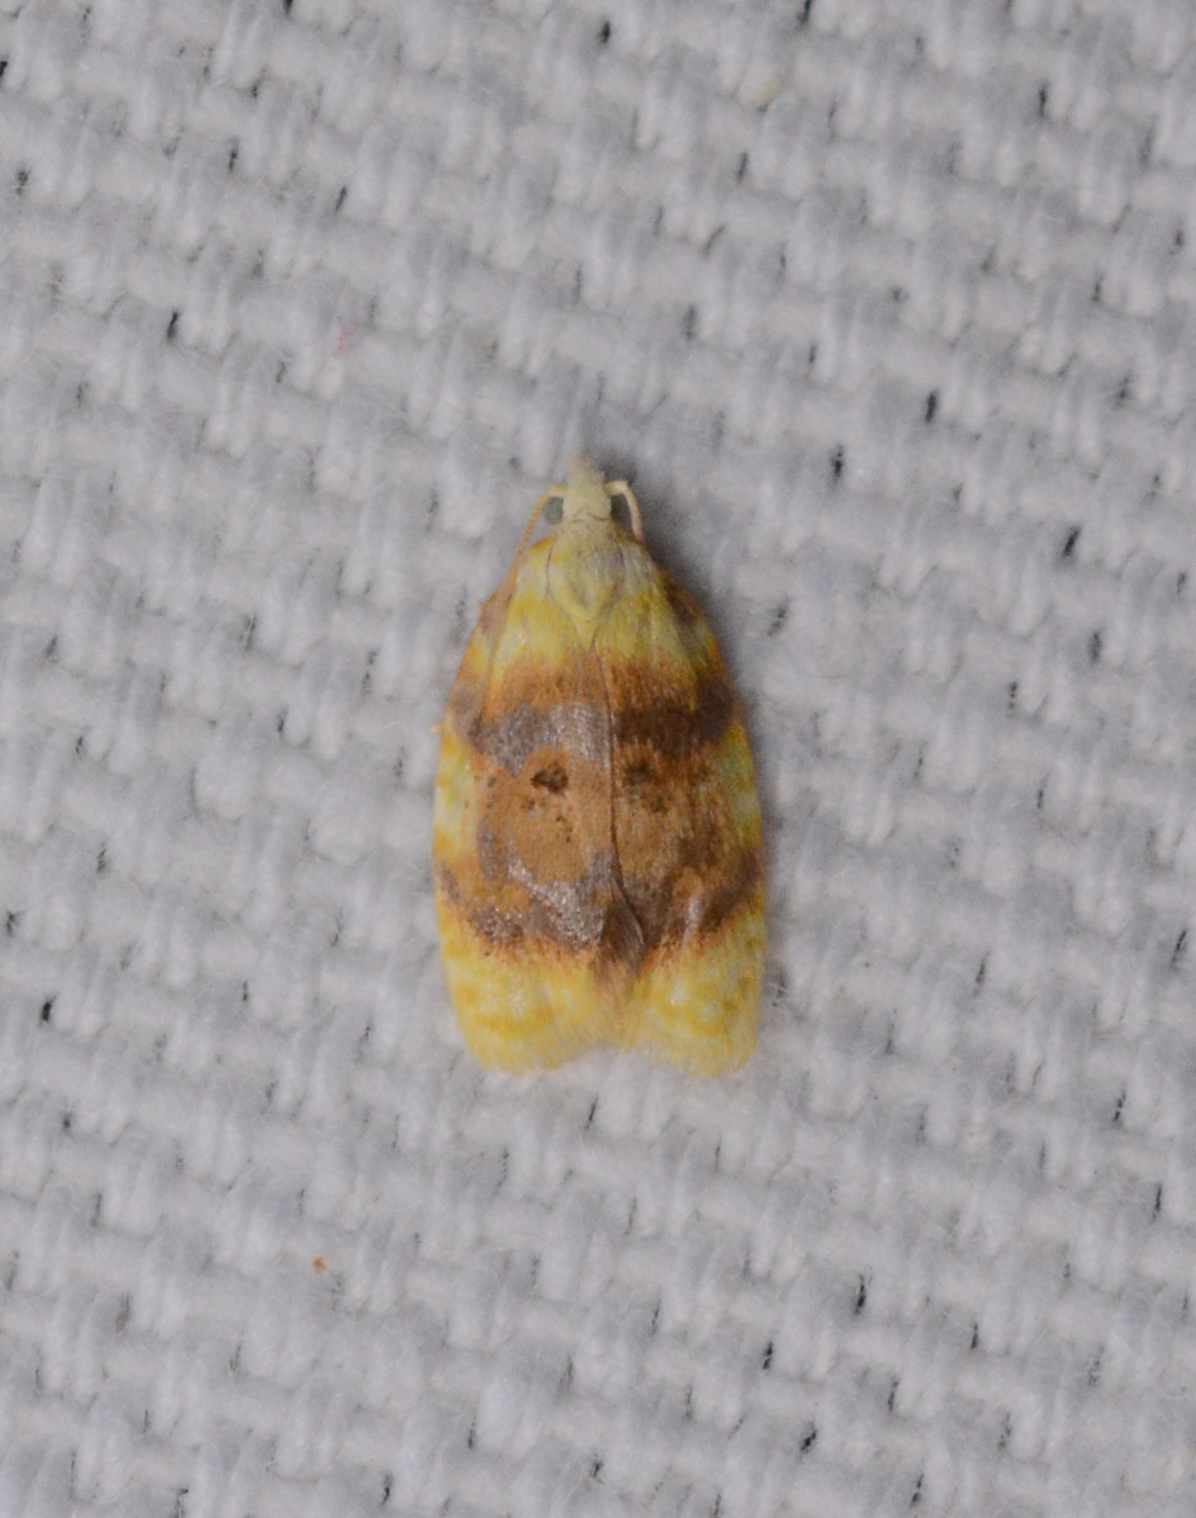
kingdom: Animalia
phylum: Arthropoda
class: Insecta
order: Lepidoptera
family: Tortricidae
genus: Acleris
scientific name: Acleris semipurpurana
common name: Oak leaftier moth
